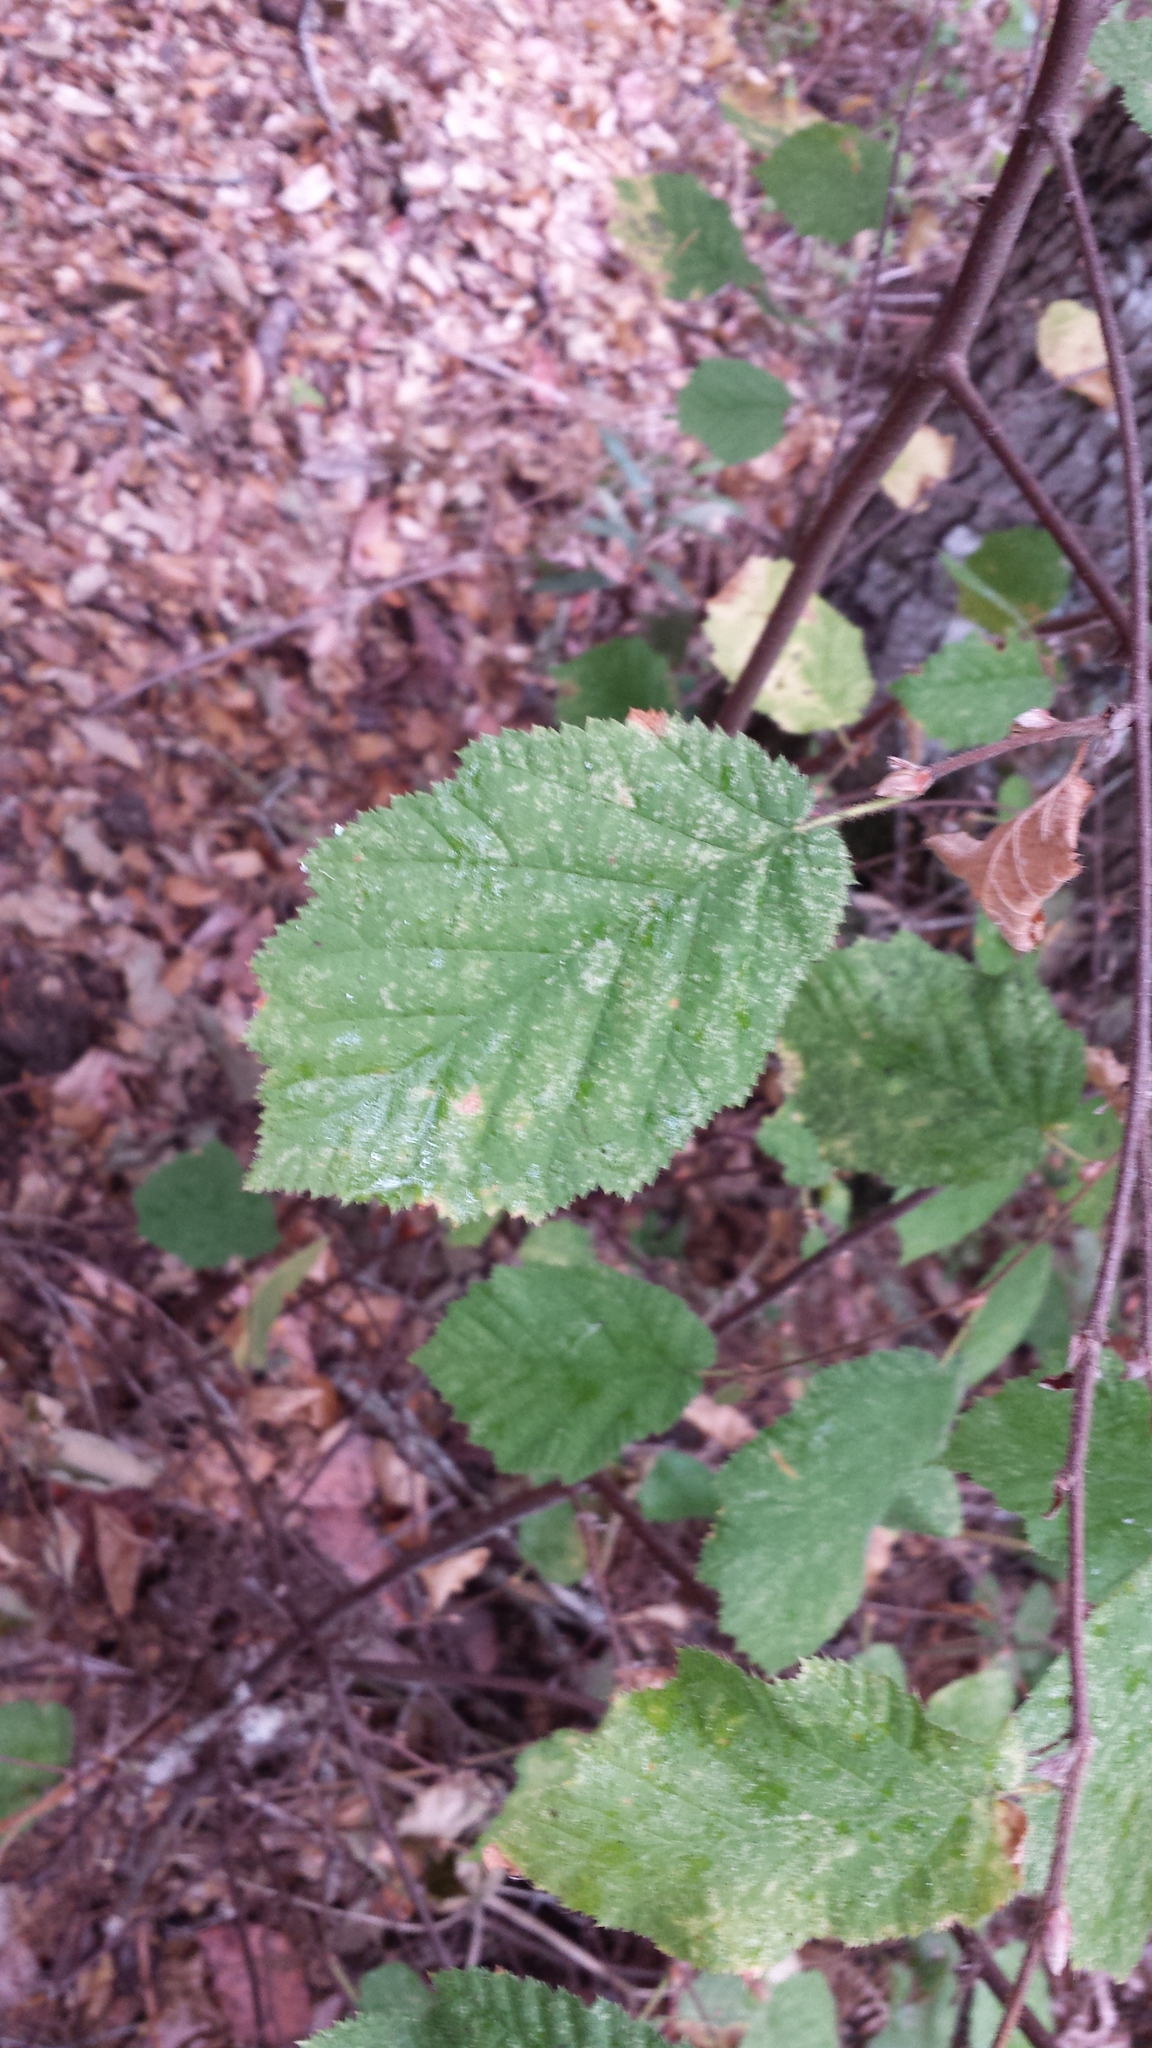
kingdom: Plantae
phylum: Tracheophyta
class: Magnoliopsida
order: Fagales
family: Betulaceae
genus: Corylus
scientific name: Corylus cornuta
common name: Beaked hazel
